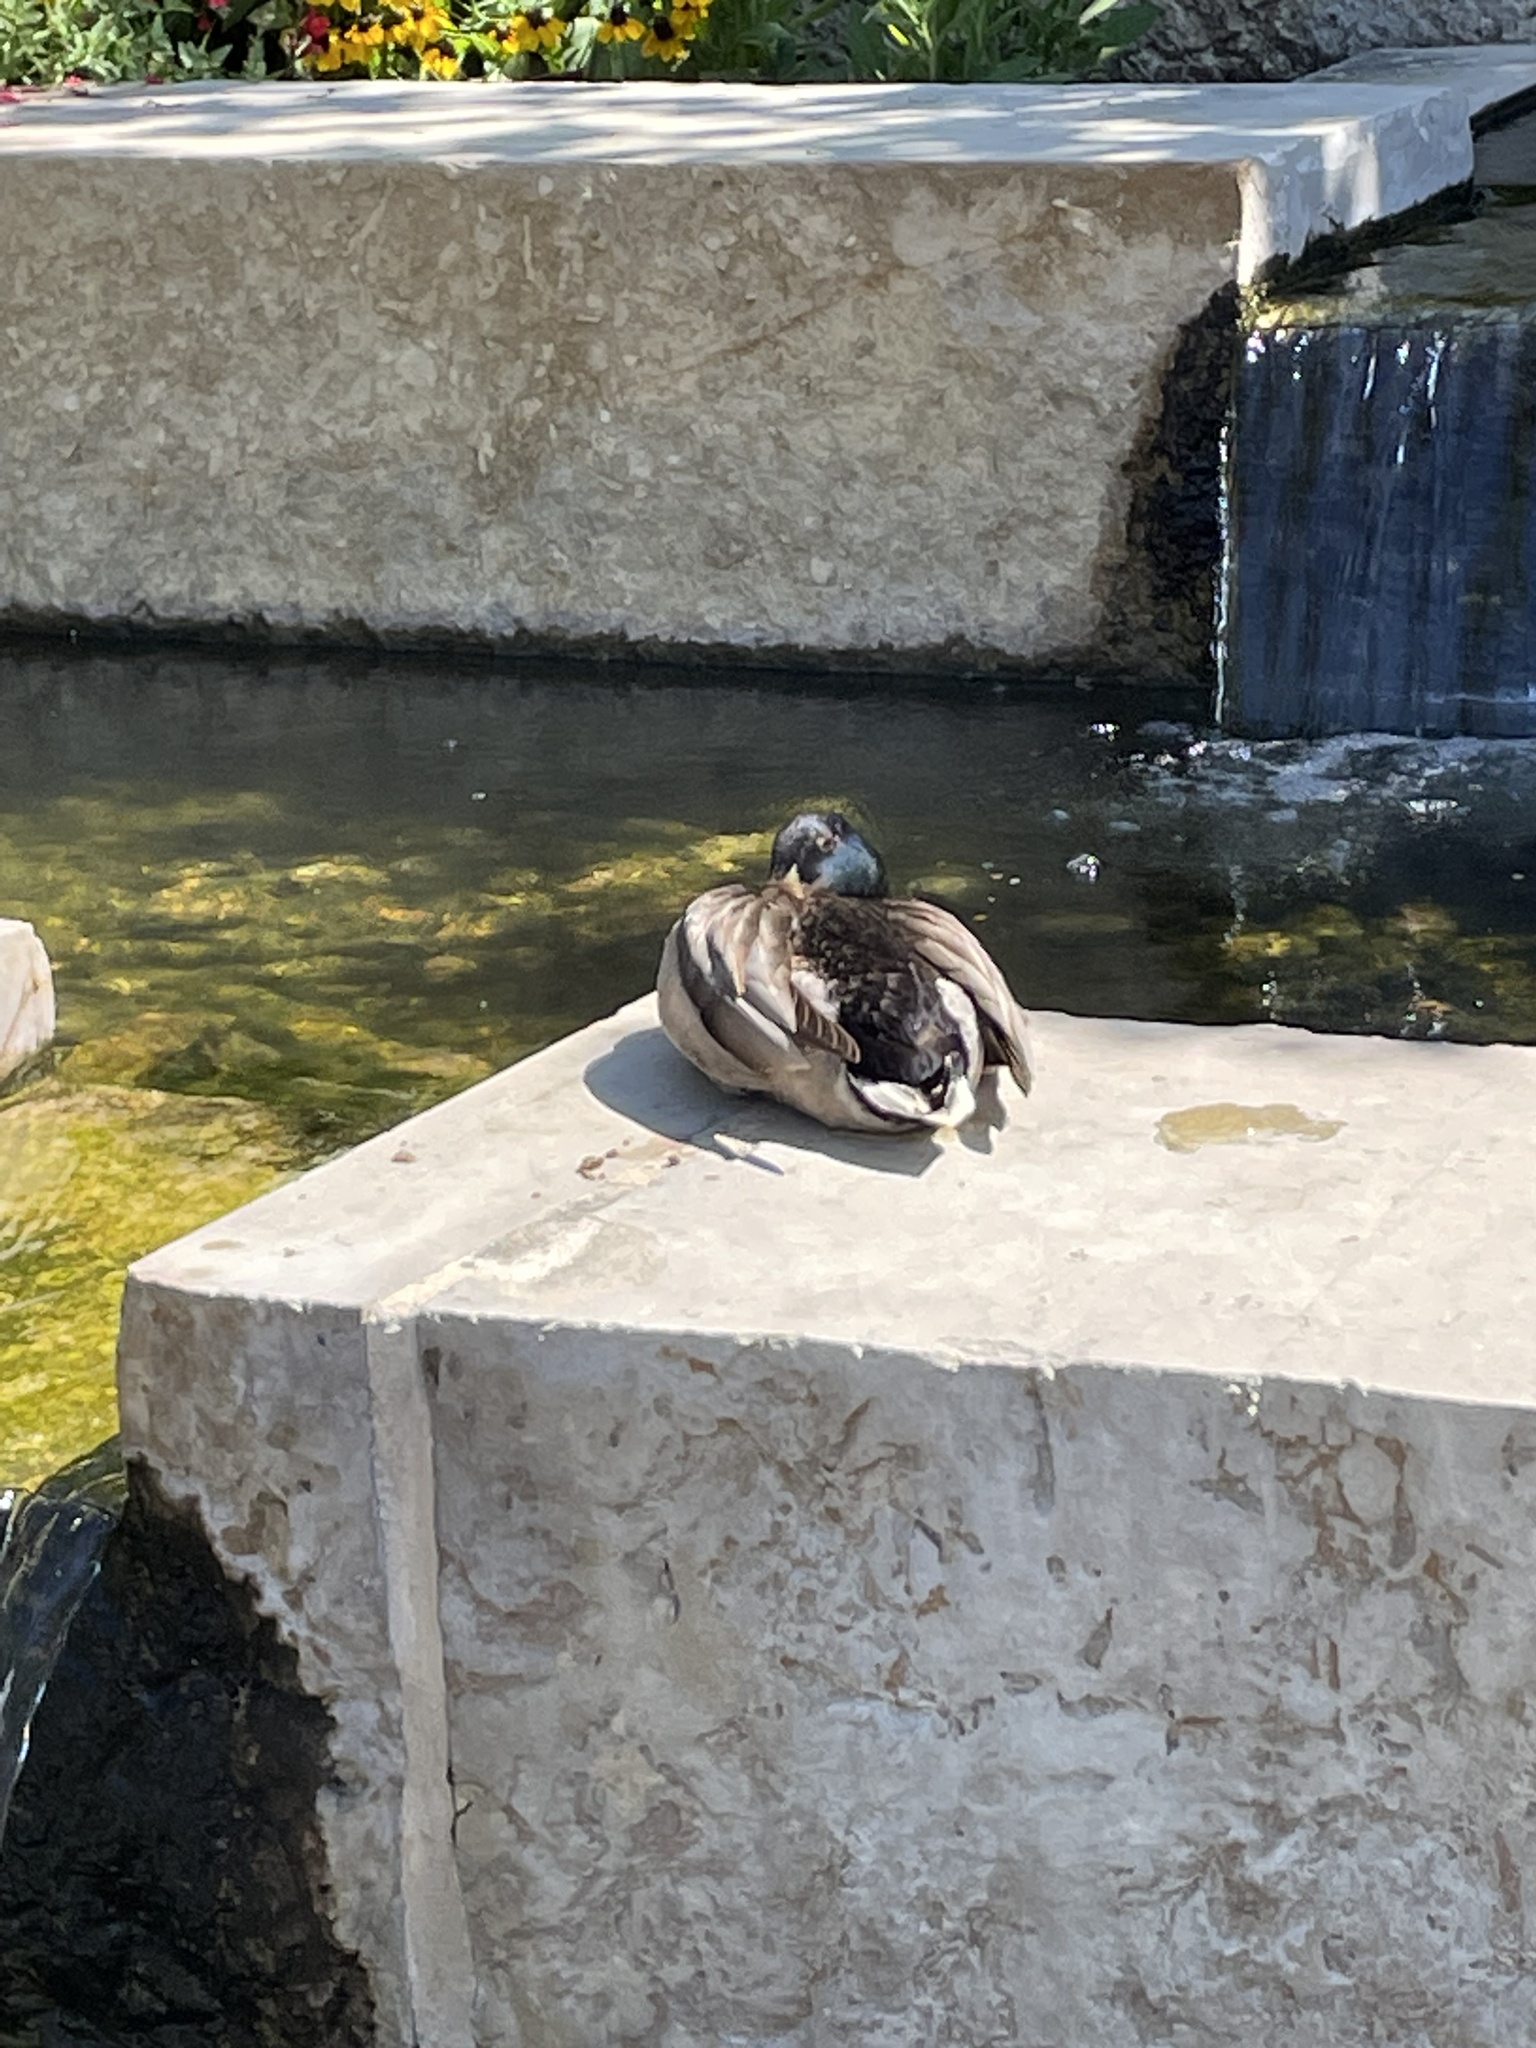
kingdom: Animalia
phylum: Chordata
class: Aves
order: Anseriformes
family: Anatidae
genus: Anas
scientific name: Anas platyrhynchos
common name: Mallard
